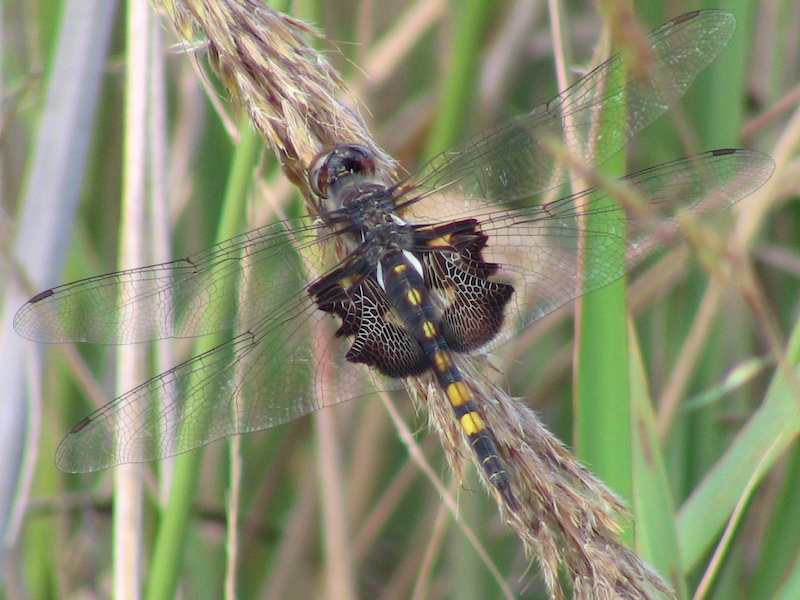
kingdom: Animalia
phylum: Arthropoda
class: Insecta
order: Odonata
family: Libellulidae
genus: Tramea
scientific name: Tramea lacerata
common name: Black saddlebags
